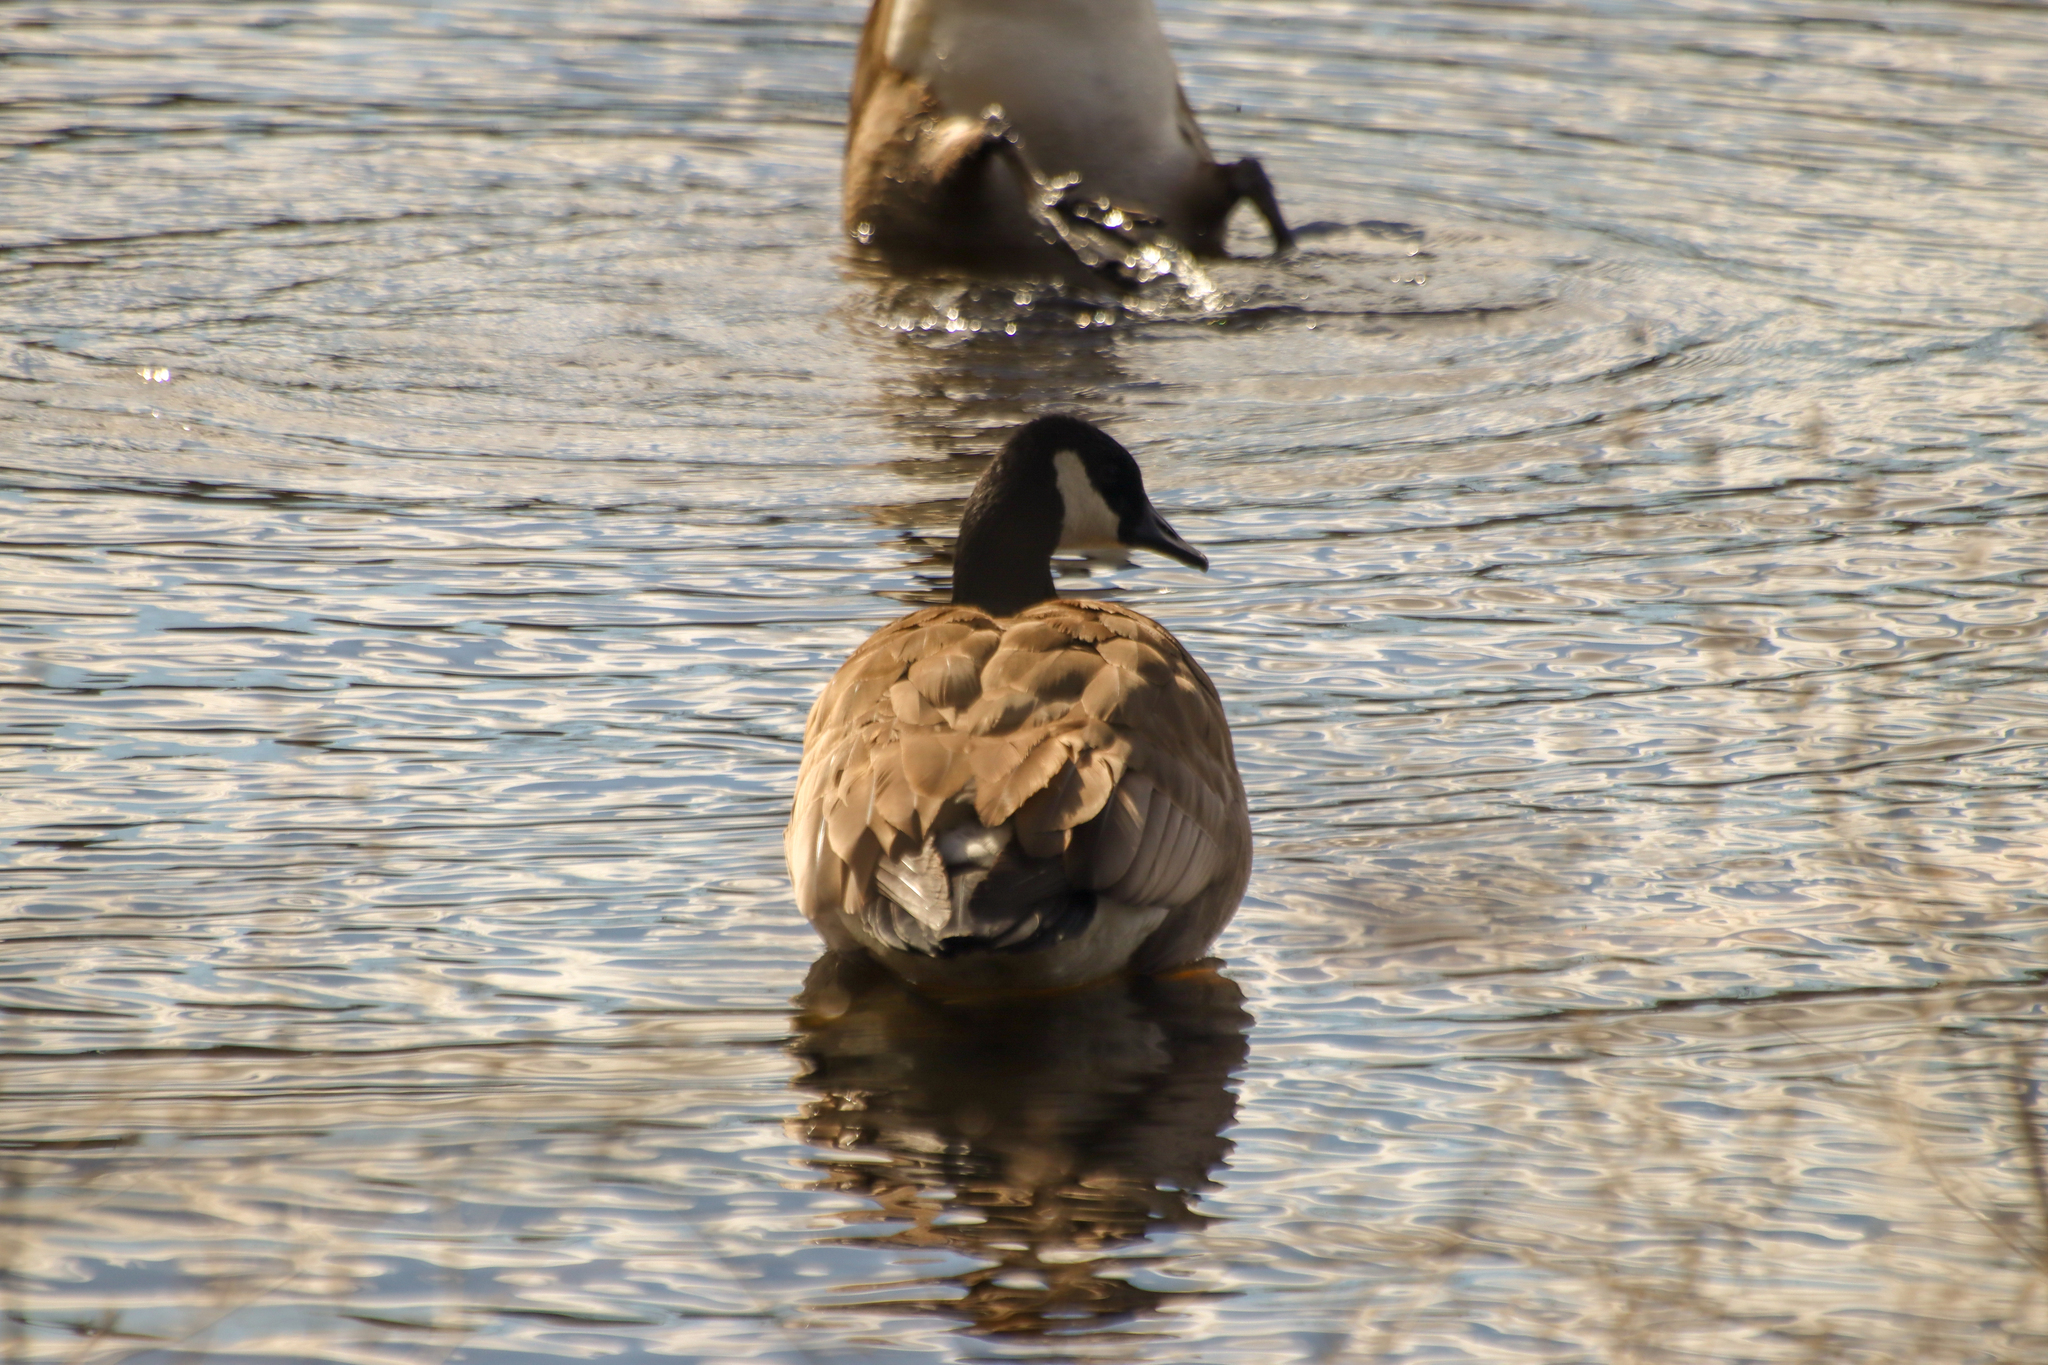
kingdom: Animalia
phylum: Chordata
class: Aves
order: Anseriformes
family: Anatidae
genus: Branta
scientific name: Branta canadensis
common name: Canada goose
